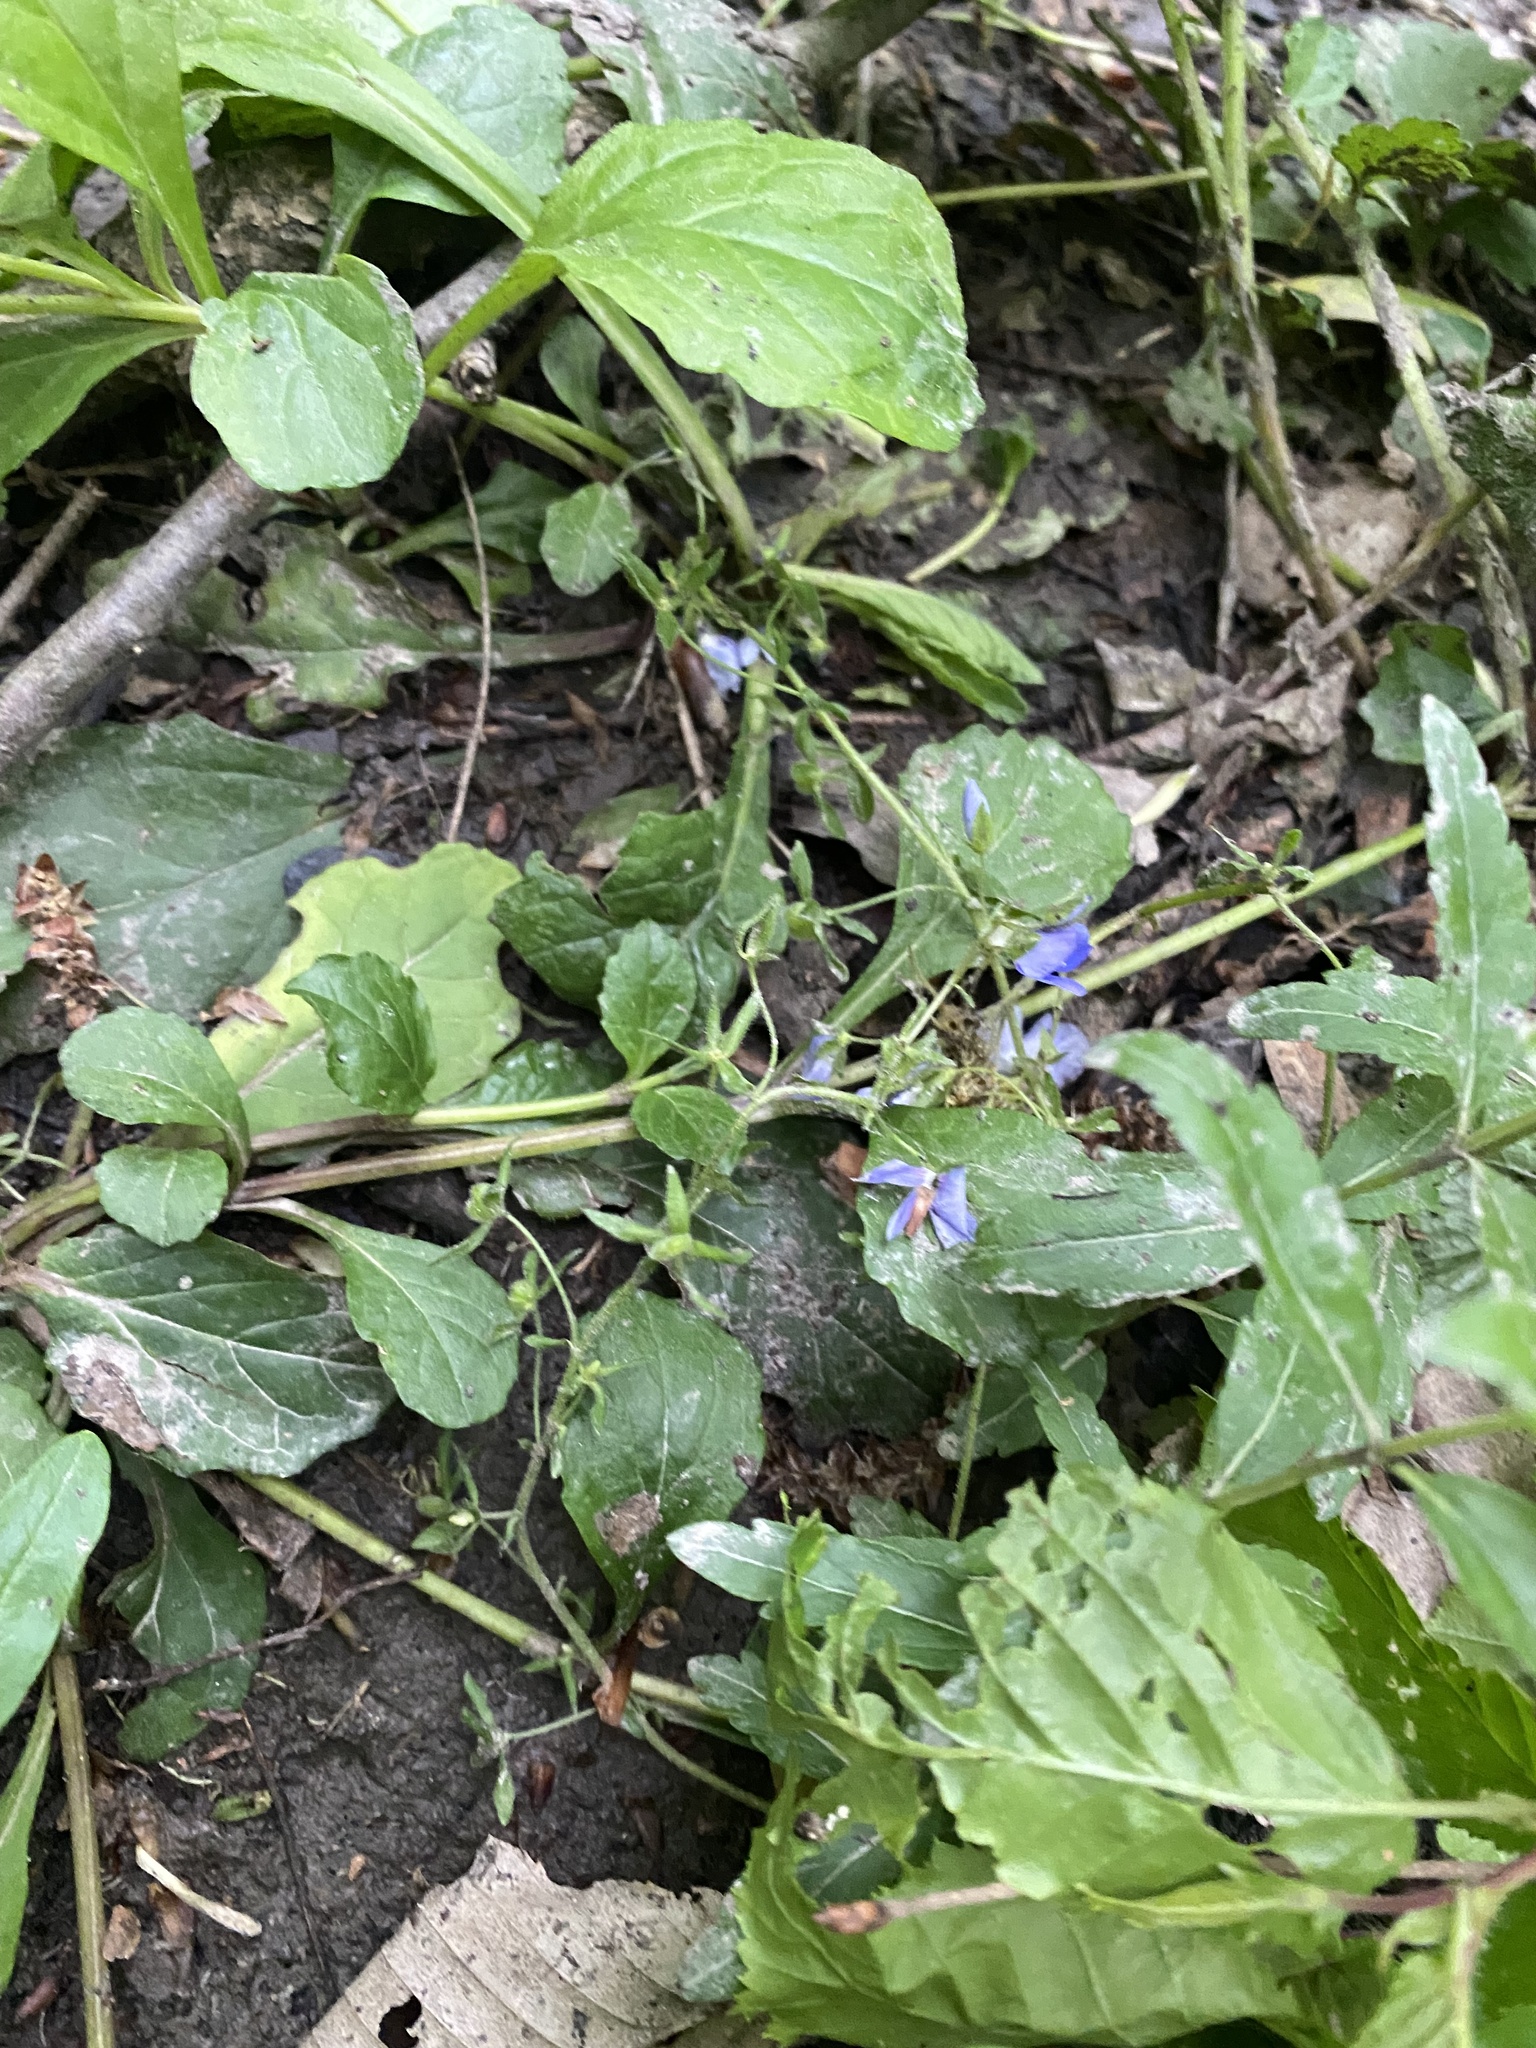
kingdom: Plantae
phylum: Tracheophyta
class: Magnoliopsida
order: Lamiales
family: Plantaginaceae
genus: Veronica
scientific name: Veronica
